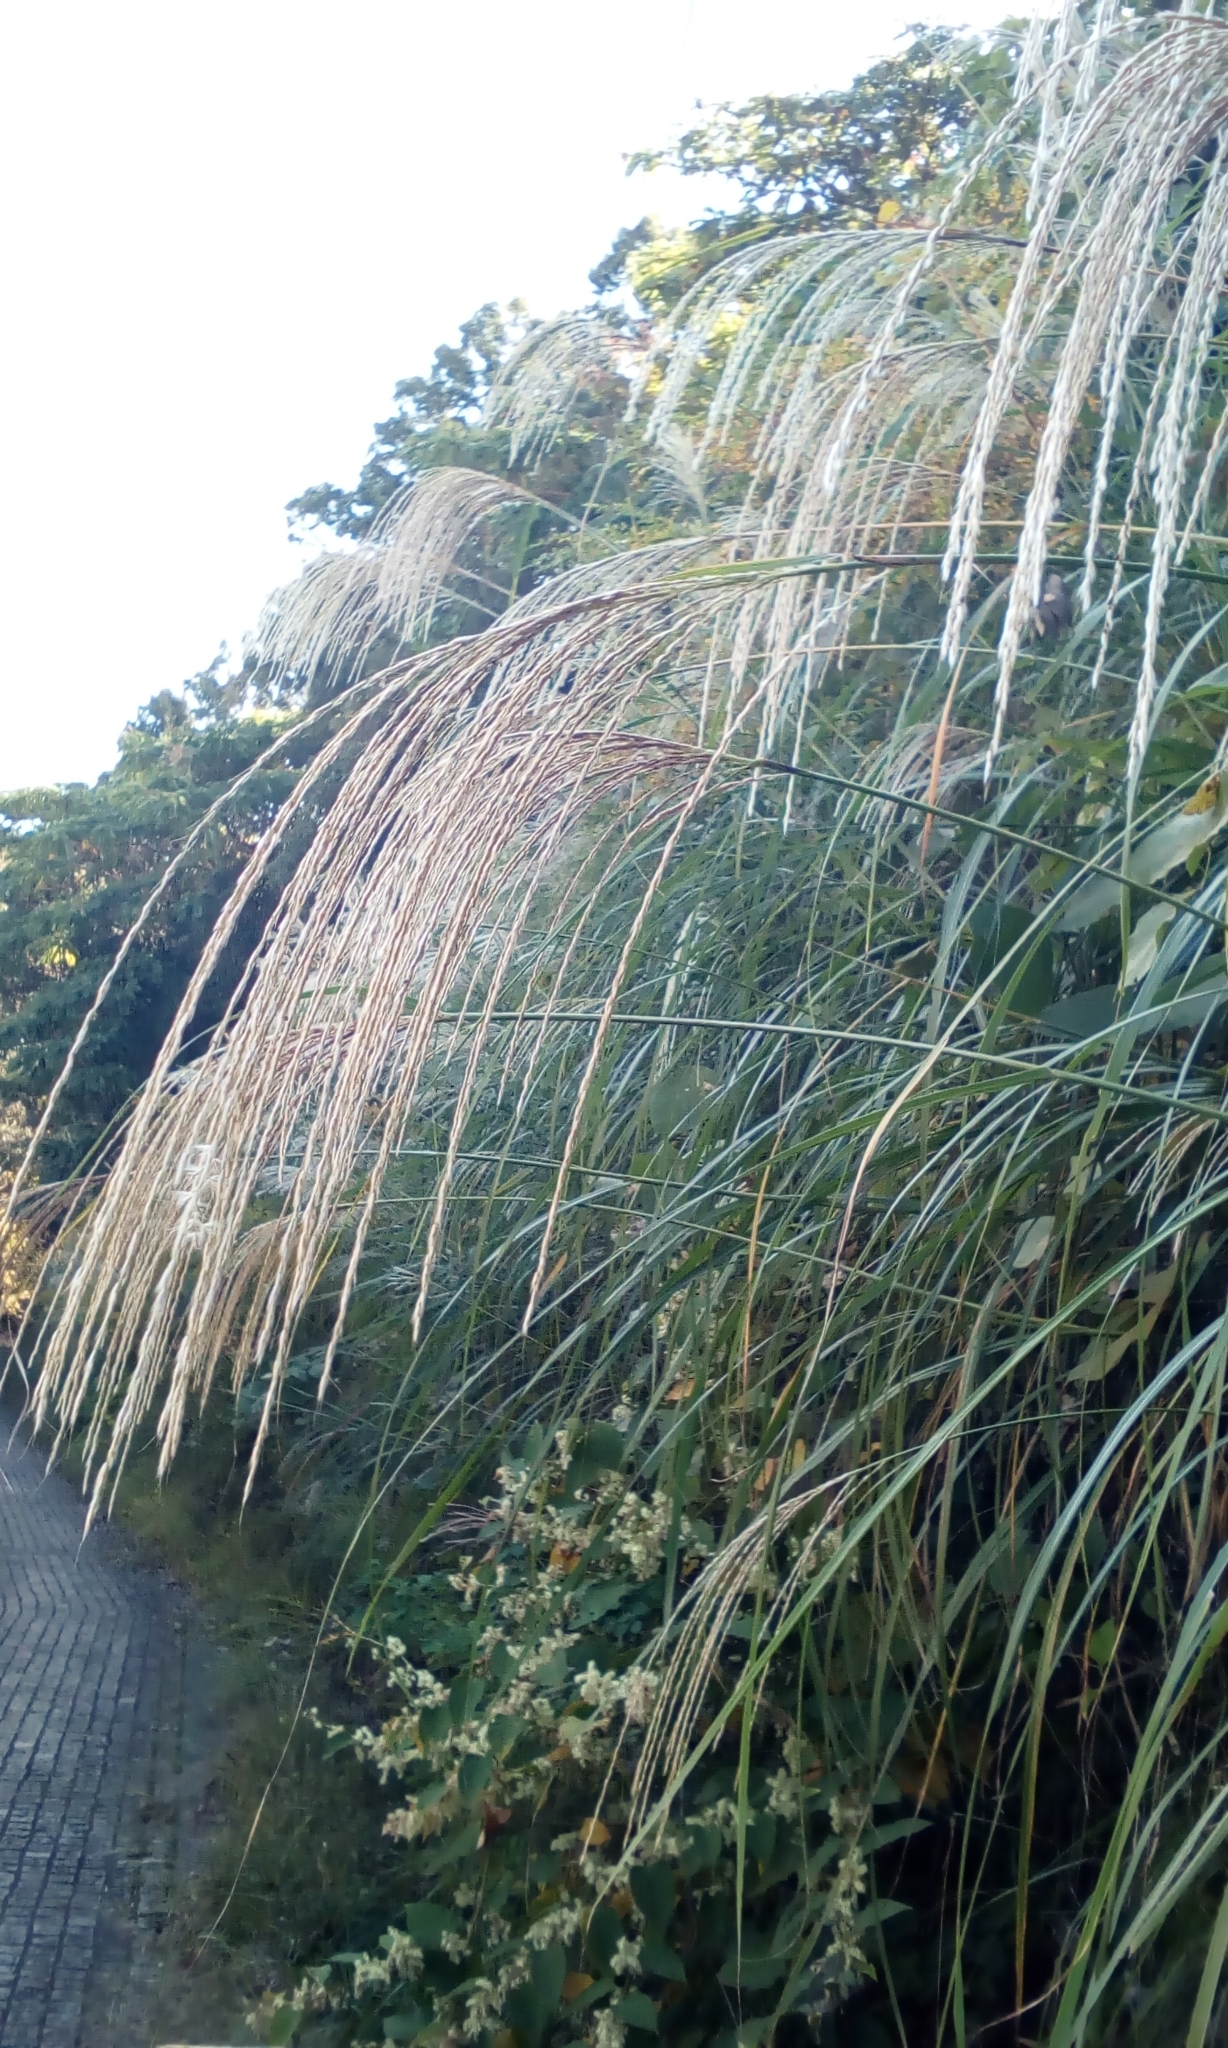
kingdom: Plantae
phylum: Tracheophyta
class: Liliopsida
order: Poales
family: Poaceae
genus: Miscanthus
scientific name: Miscanthus sinensis
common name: Chinese silvergrass
